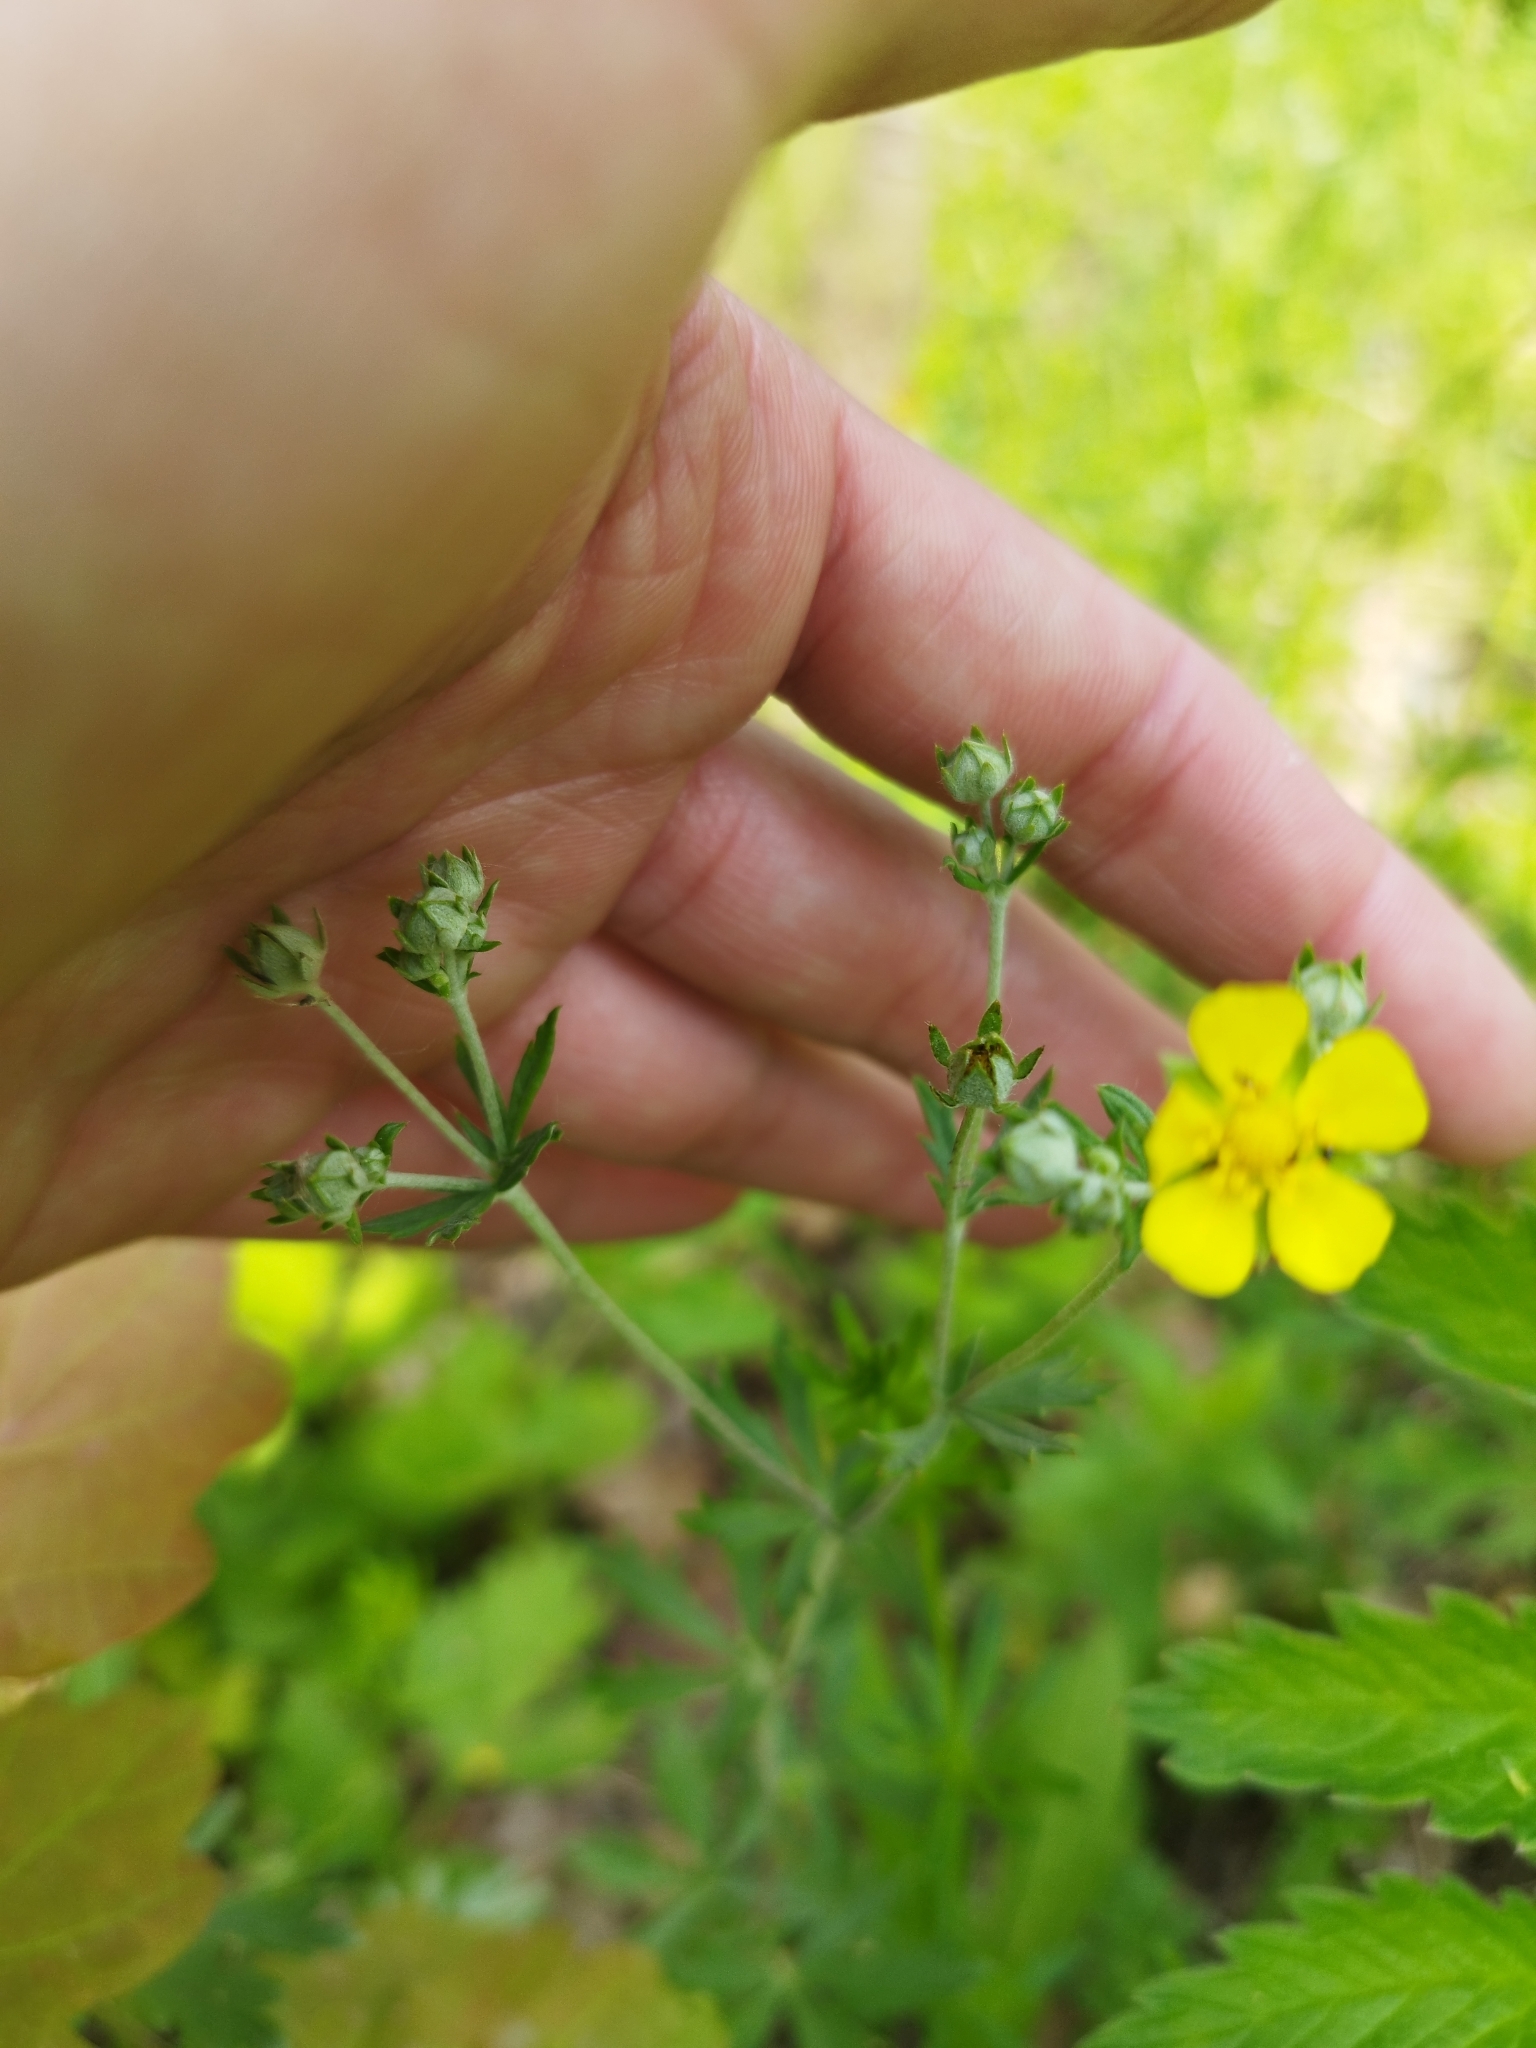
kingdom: Plantae
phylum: Tracheophyta
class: Magnoliopsida
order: Rosales
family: Rosaceae
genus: Potentilla
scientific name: Potentilla argentea
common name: Hoary cinquefoil
